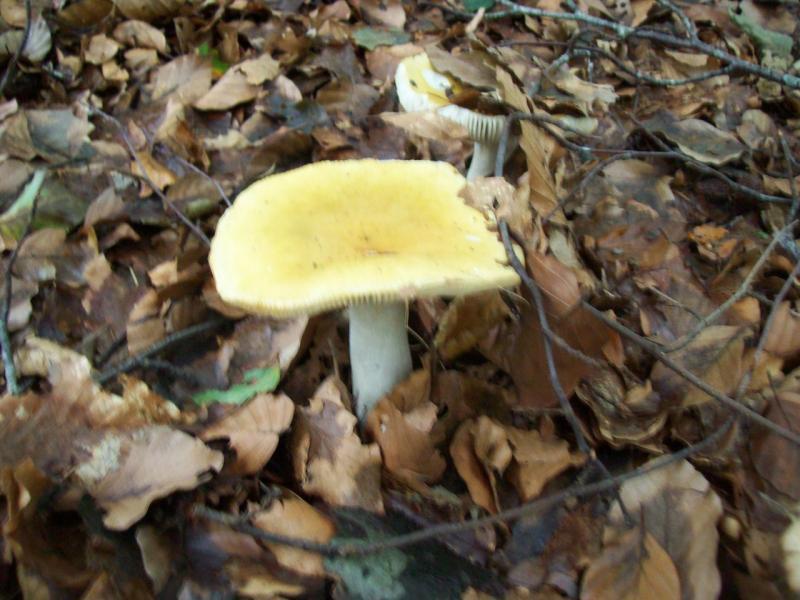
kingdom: Fungi
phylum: Basidiomycota
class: Agaricomycetes
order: Russulales
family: Russulaceae
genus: Russula
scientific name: Russula ochroleuca
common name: Common yellow russula
